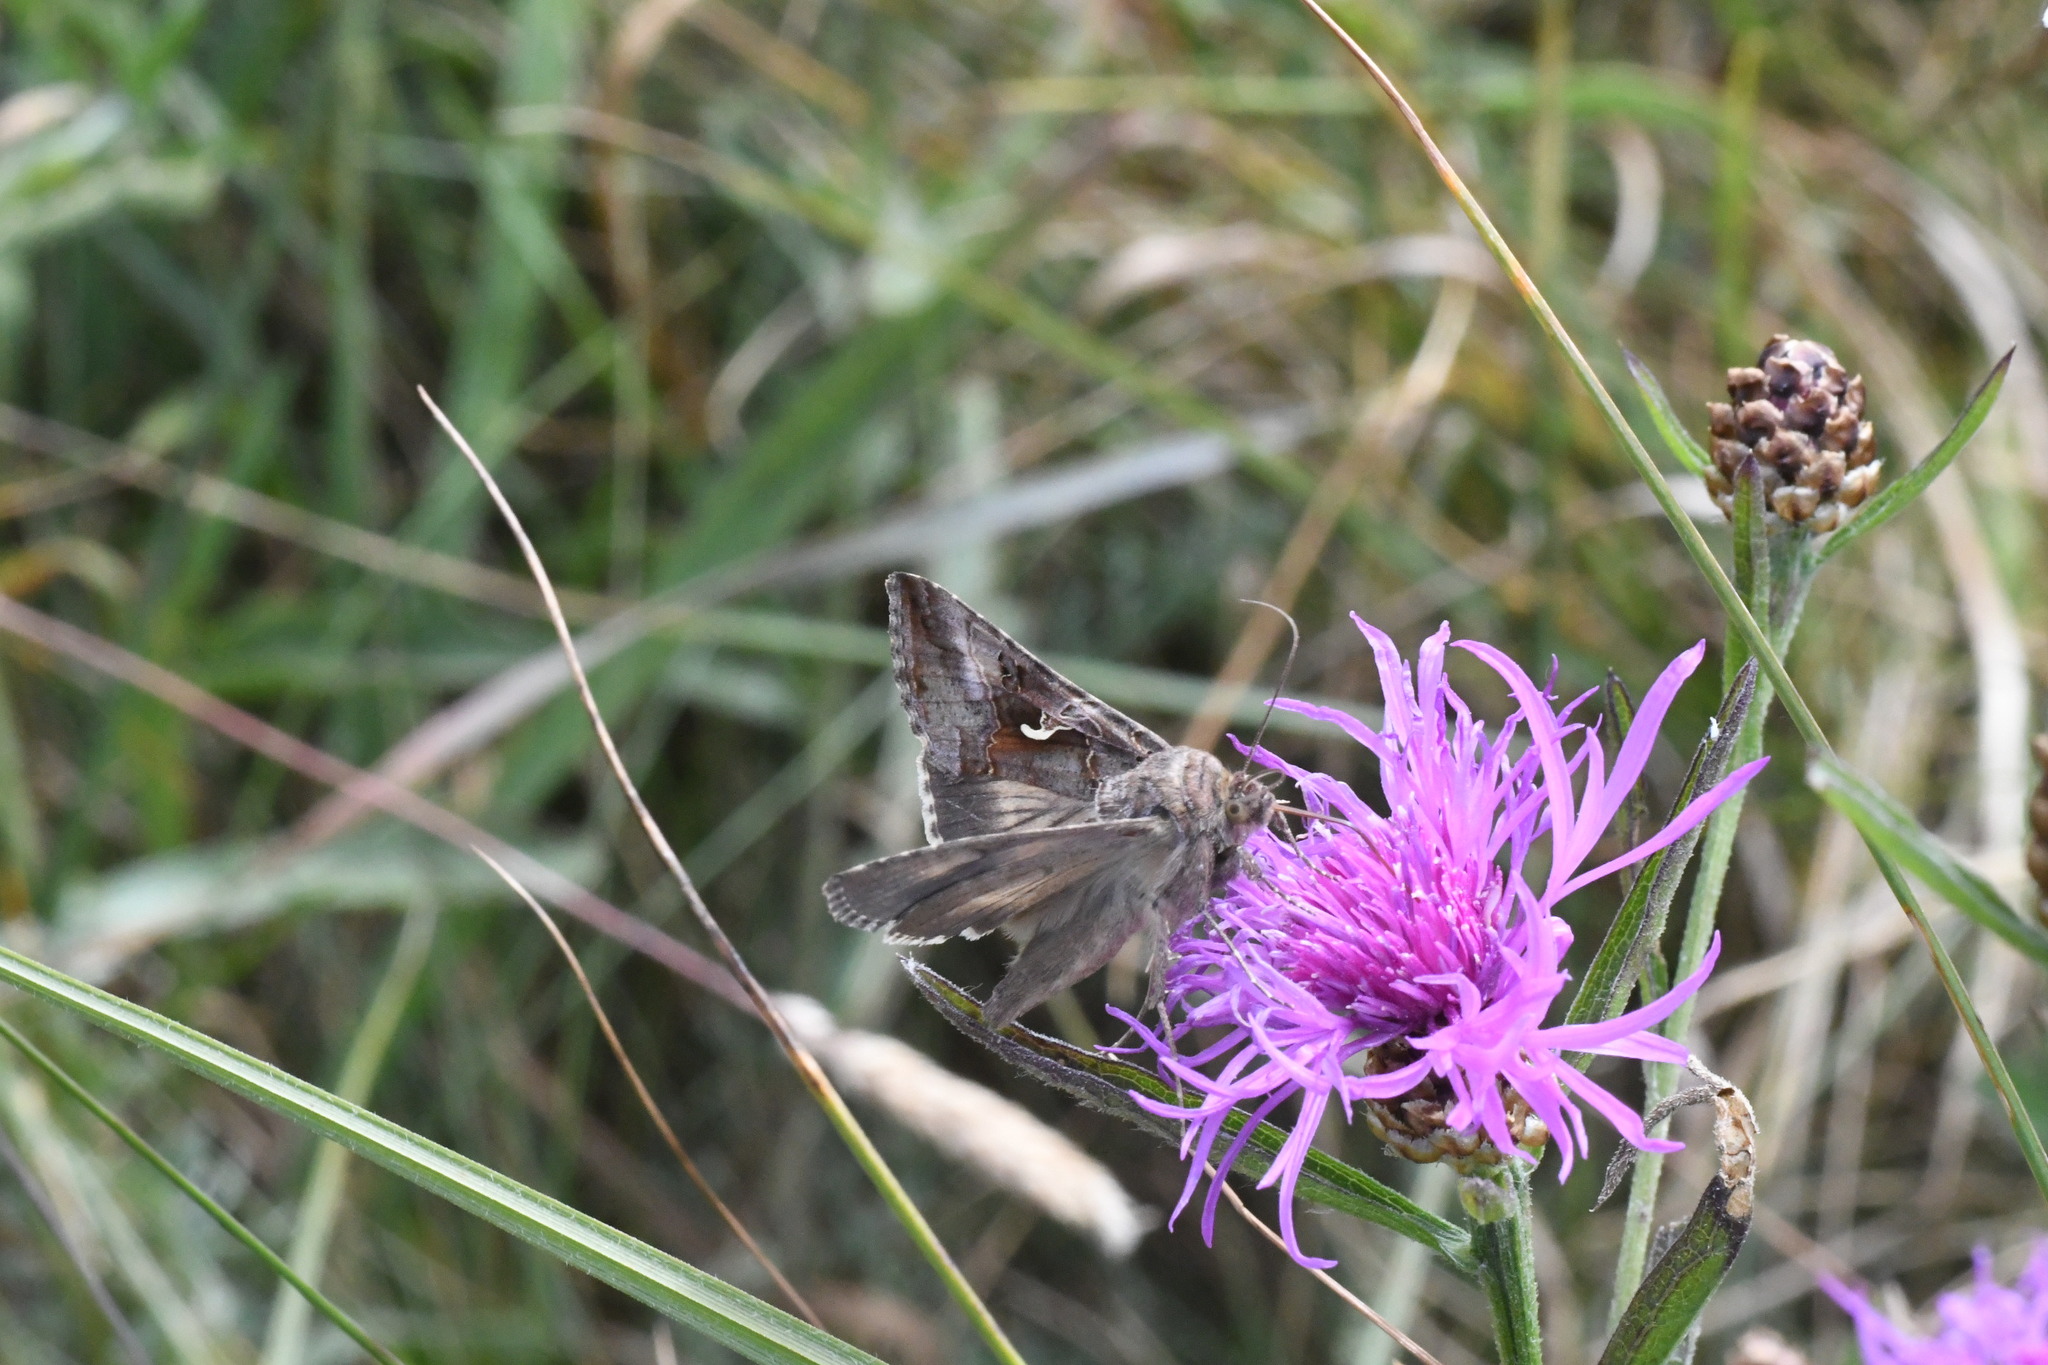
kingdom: Animalia
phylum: Arthropoda
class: Insecta
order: Lepidoptera
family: Noctuidae
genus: Autographa
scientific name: Autographa gamma
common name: Silver y
